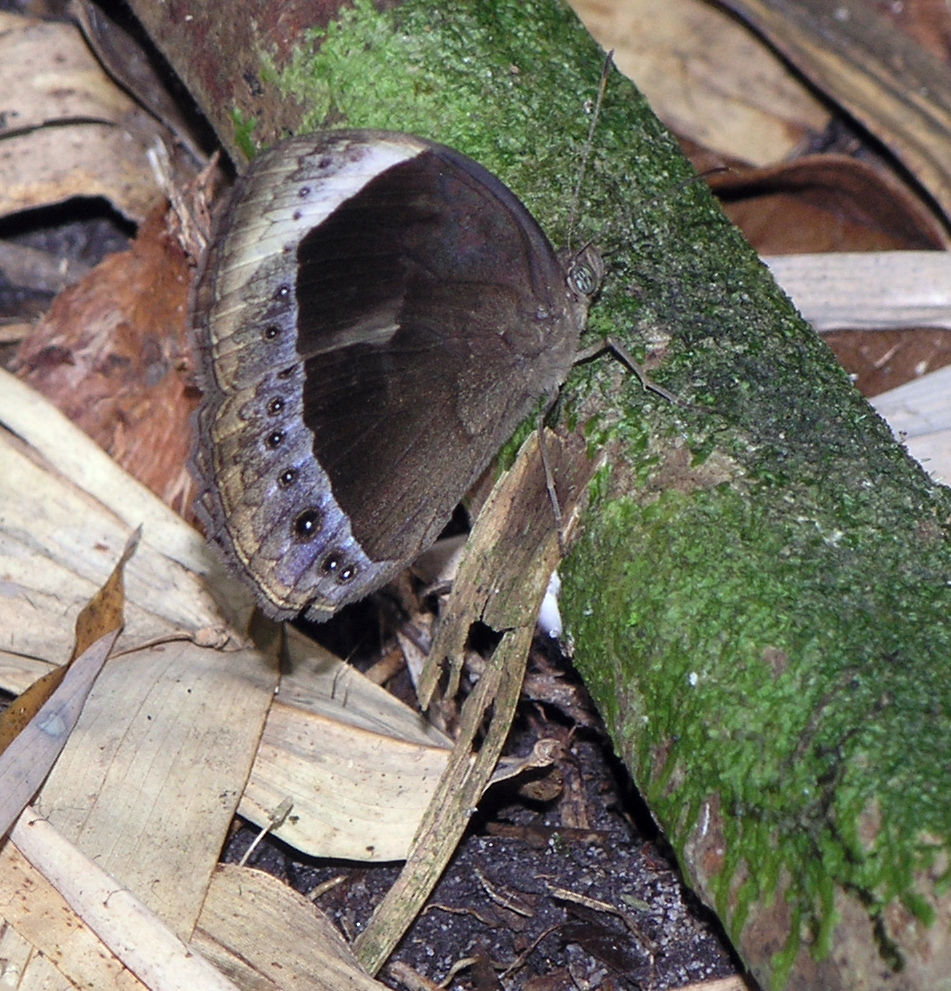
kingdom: Animalia
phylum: Arthropoda
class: Insecta
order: Lepidoptera
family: Nymphalidae
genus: Mycalesis
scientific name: Mycalesis anaxioides
